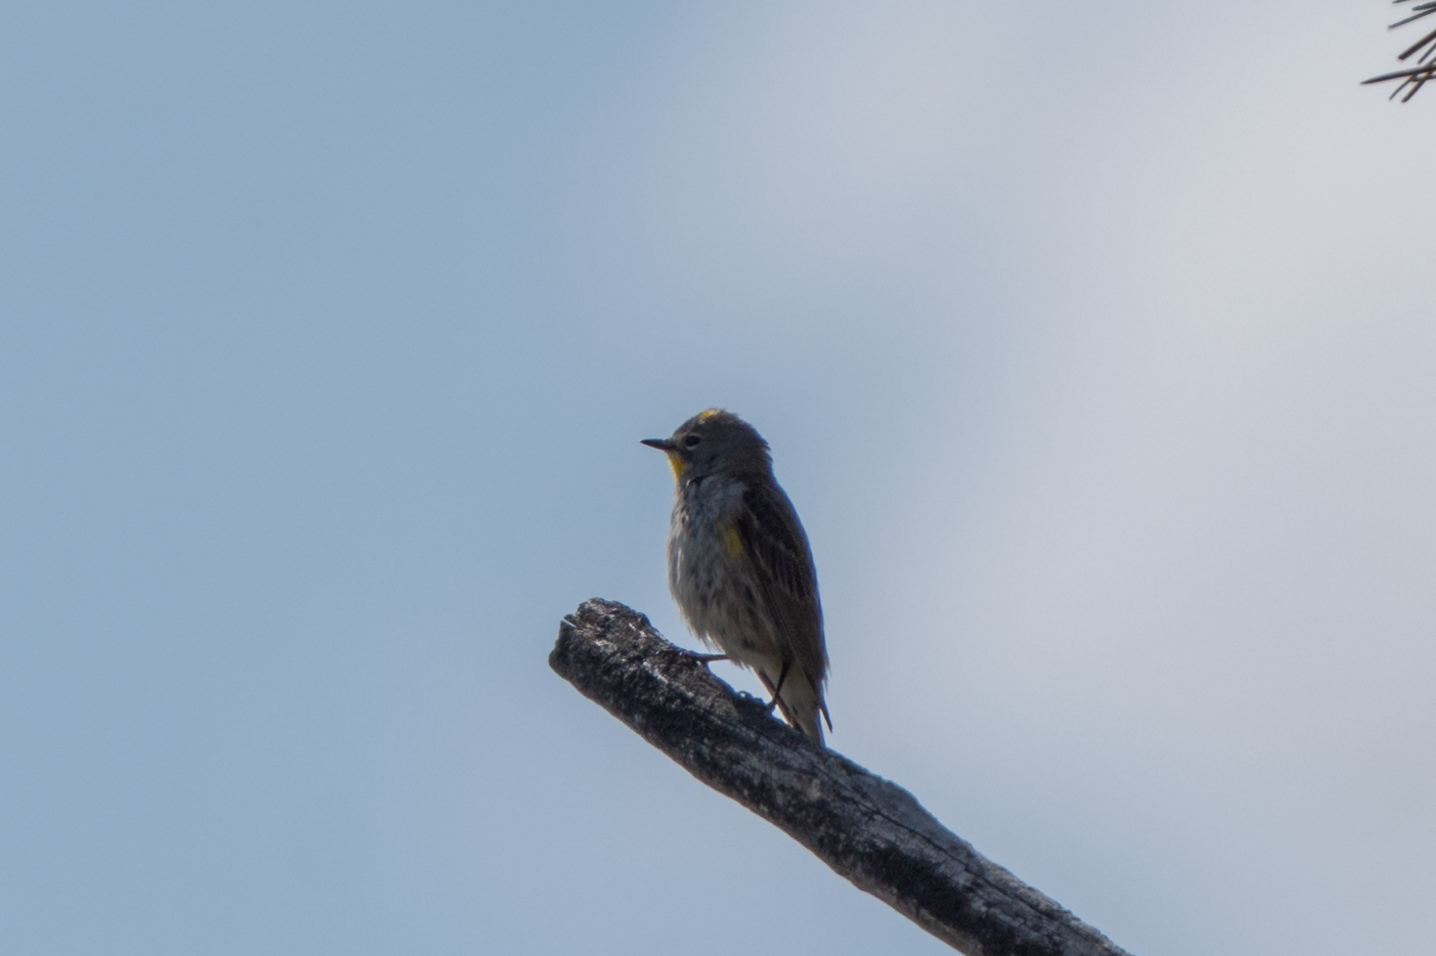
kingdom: Animalia
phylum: Chordata
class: Aves
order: Passeriformes
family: Parulidae
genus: Setophaga
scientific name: Setophaga auduboni
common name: Audubon's warbler
